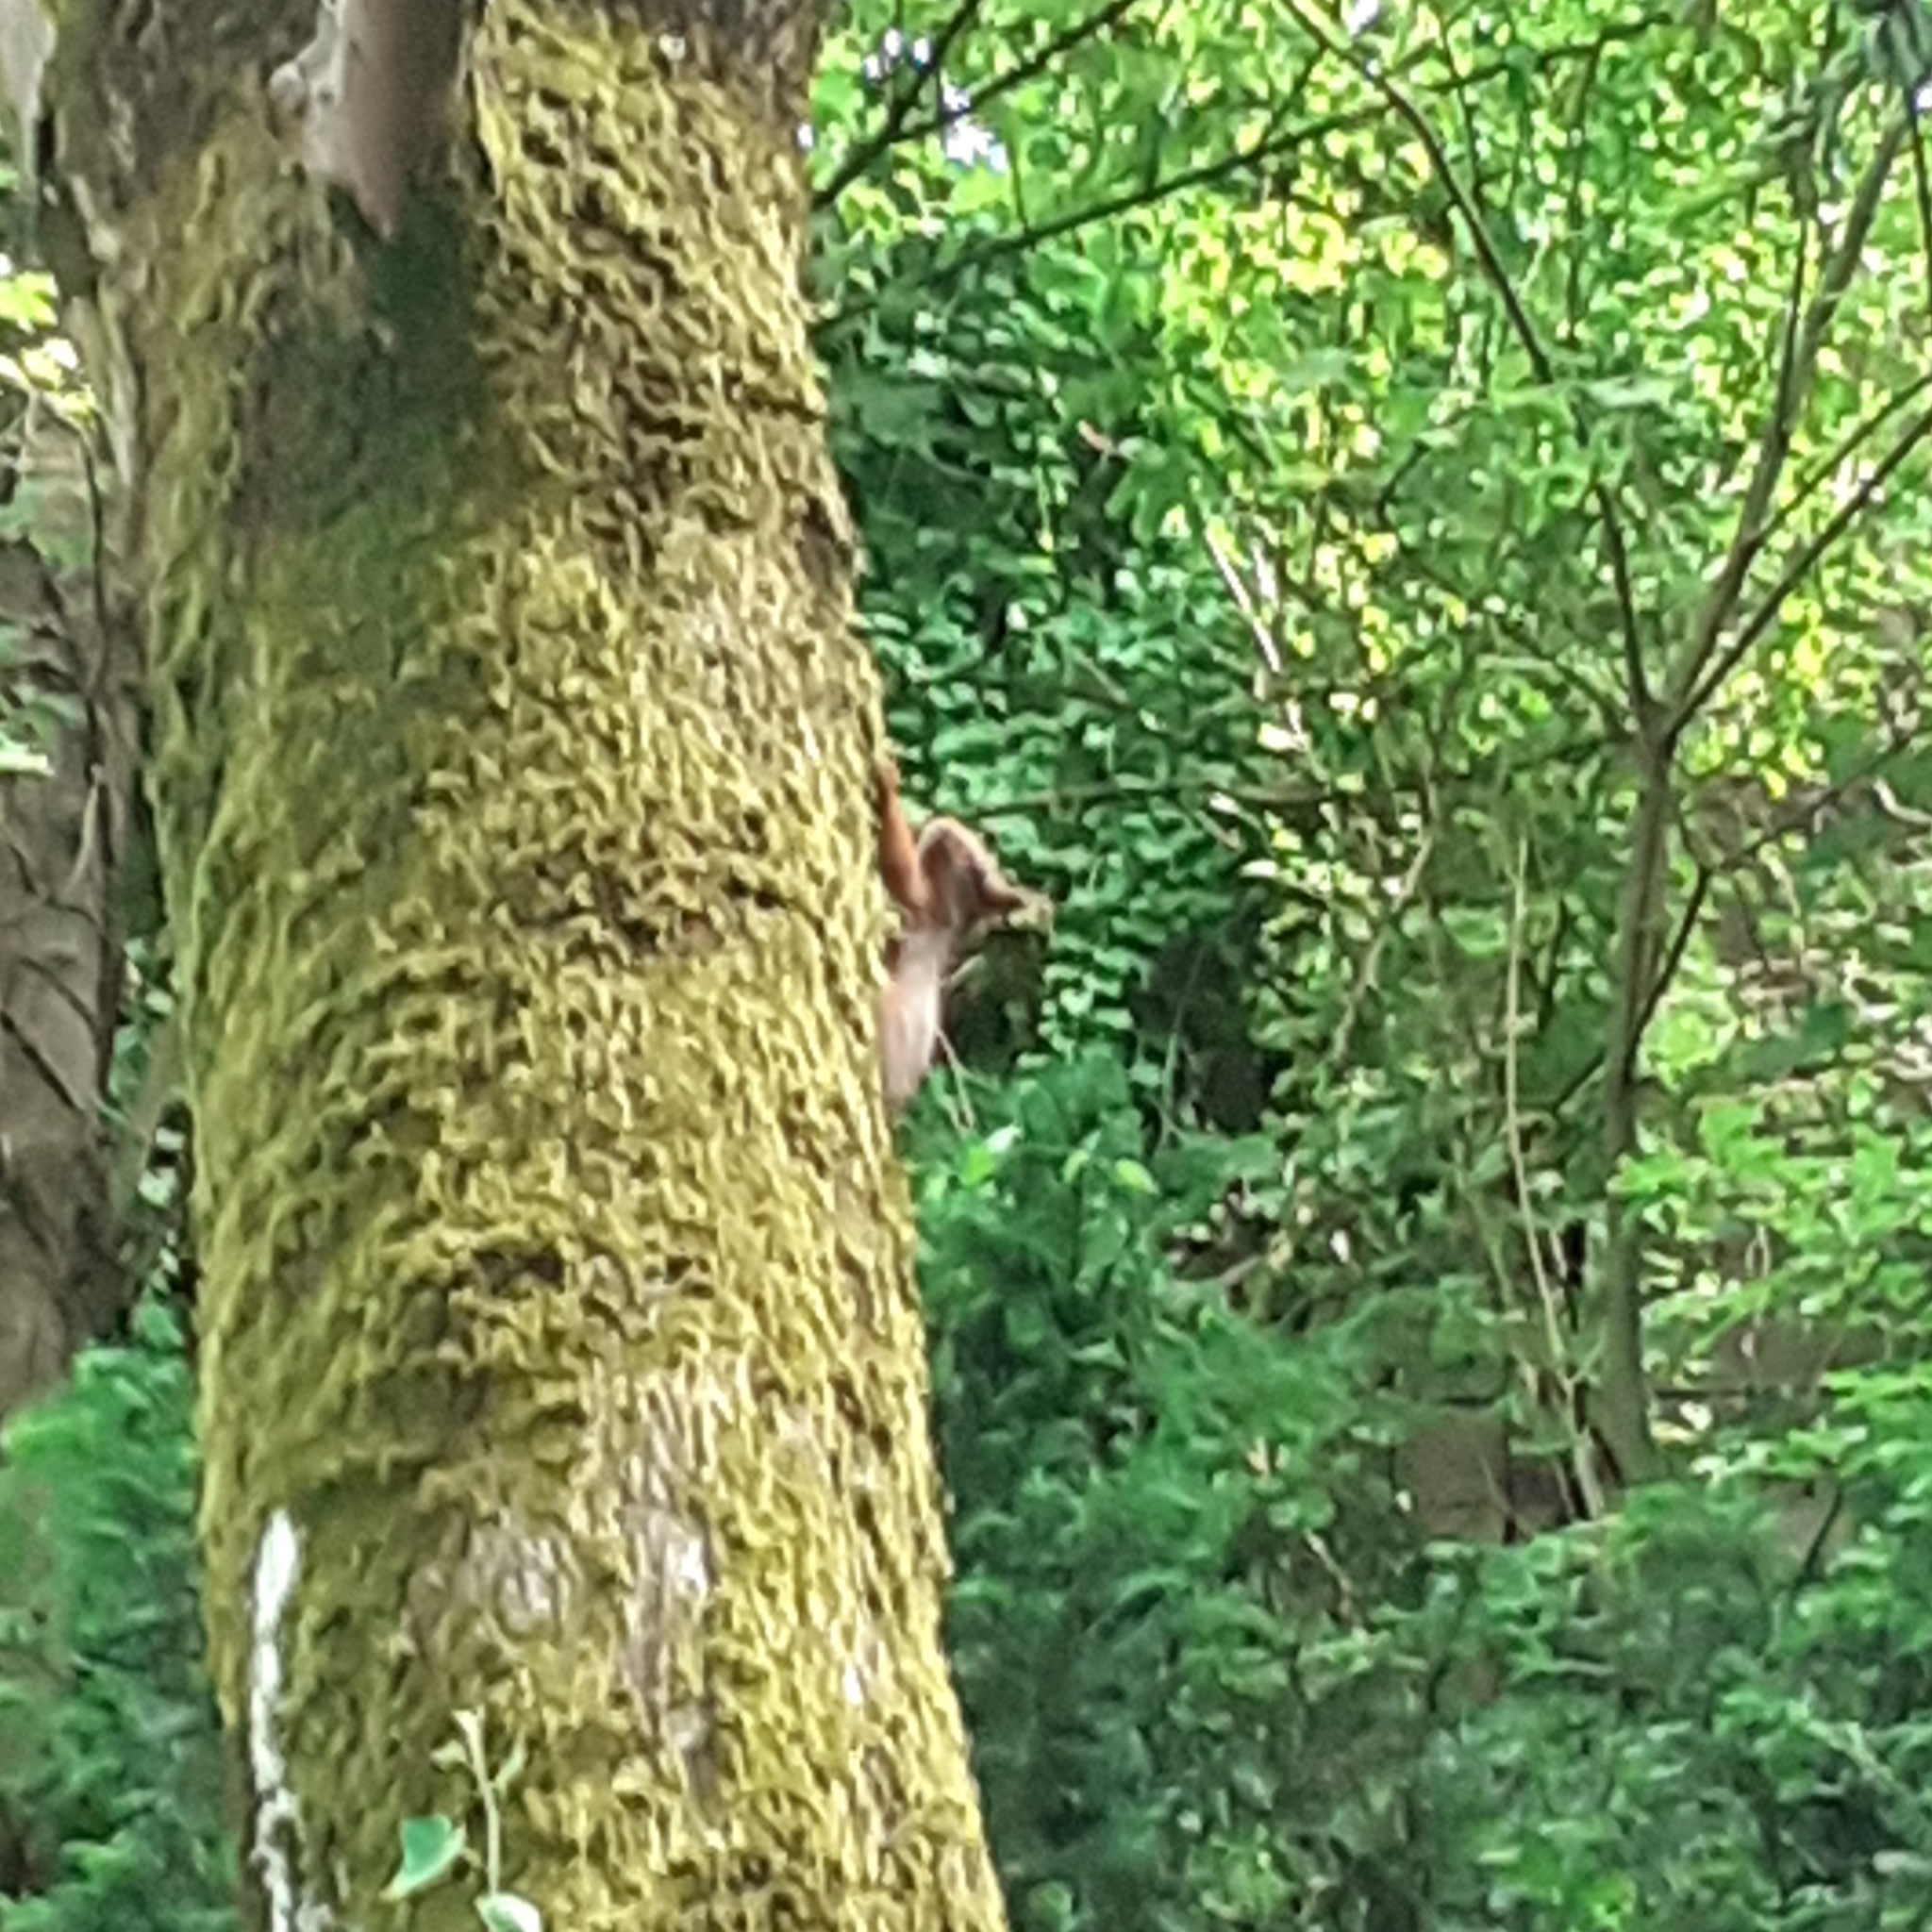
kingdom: Animalia
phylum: Chordata
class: Mammalia
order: Rodentia
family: Sciuridae
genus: Sciurus
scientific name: Sciurus vulgaris
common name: Eurasian red squirrel
